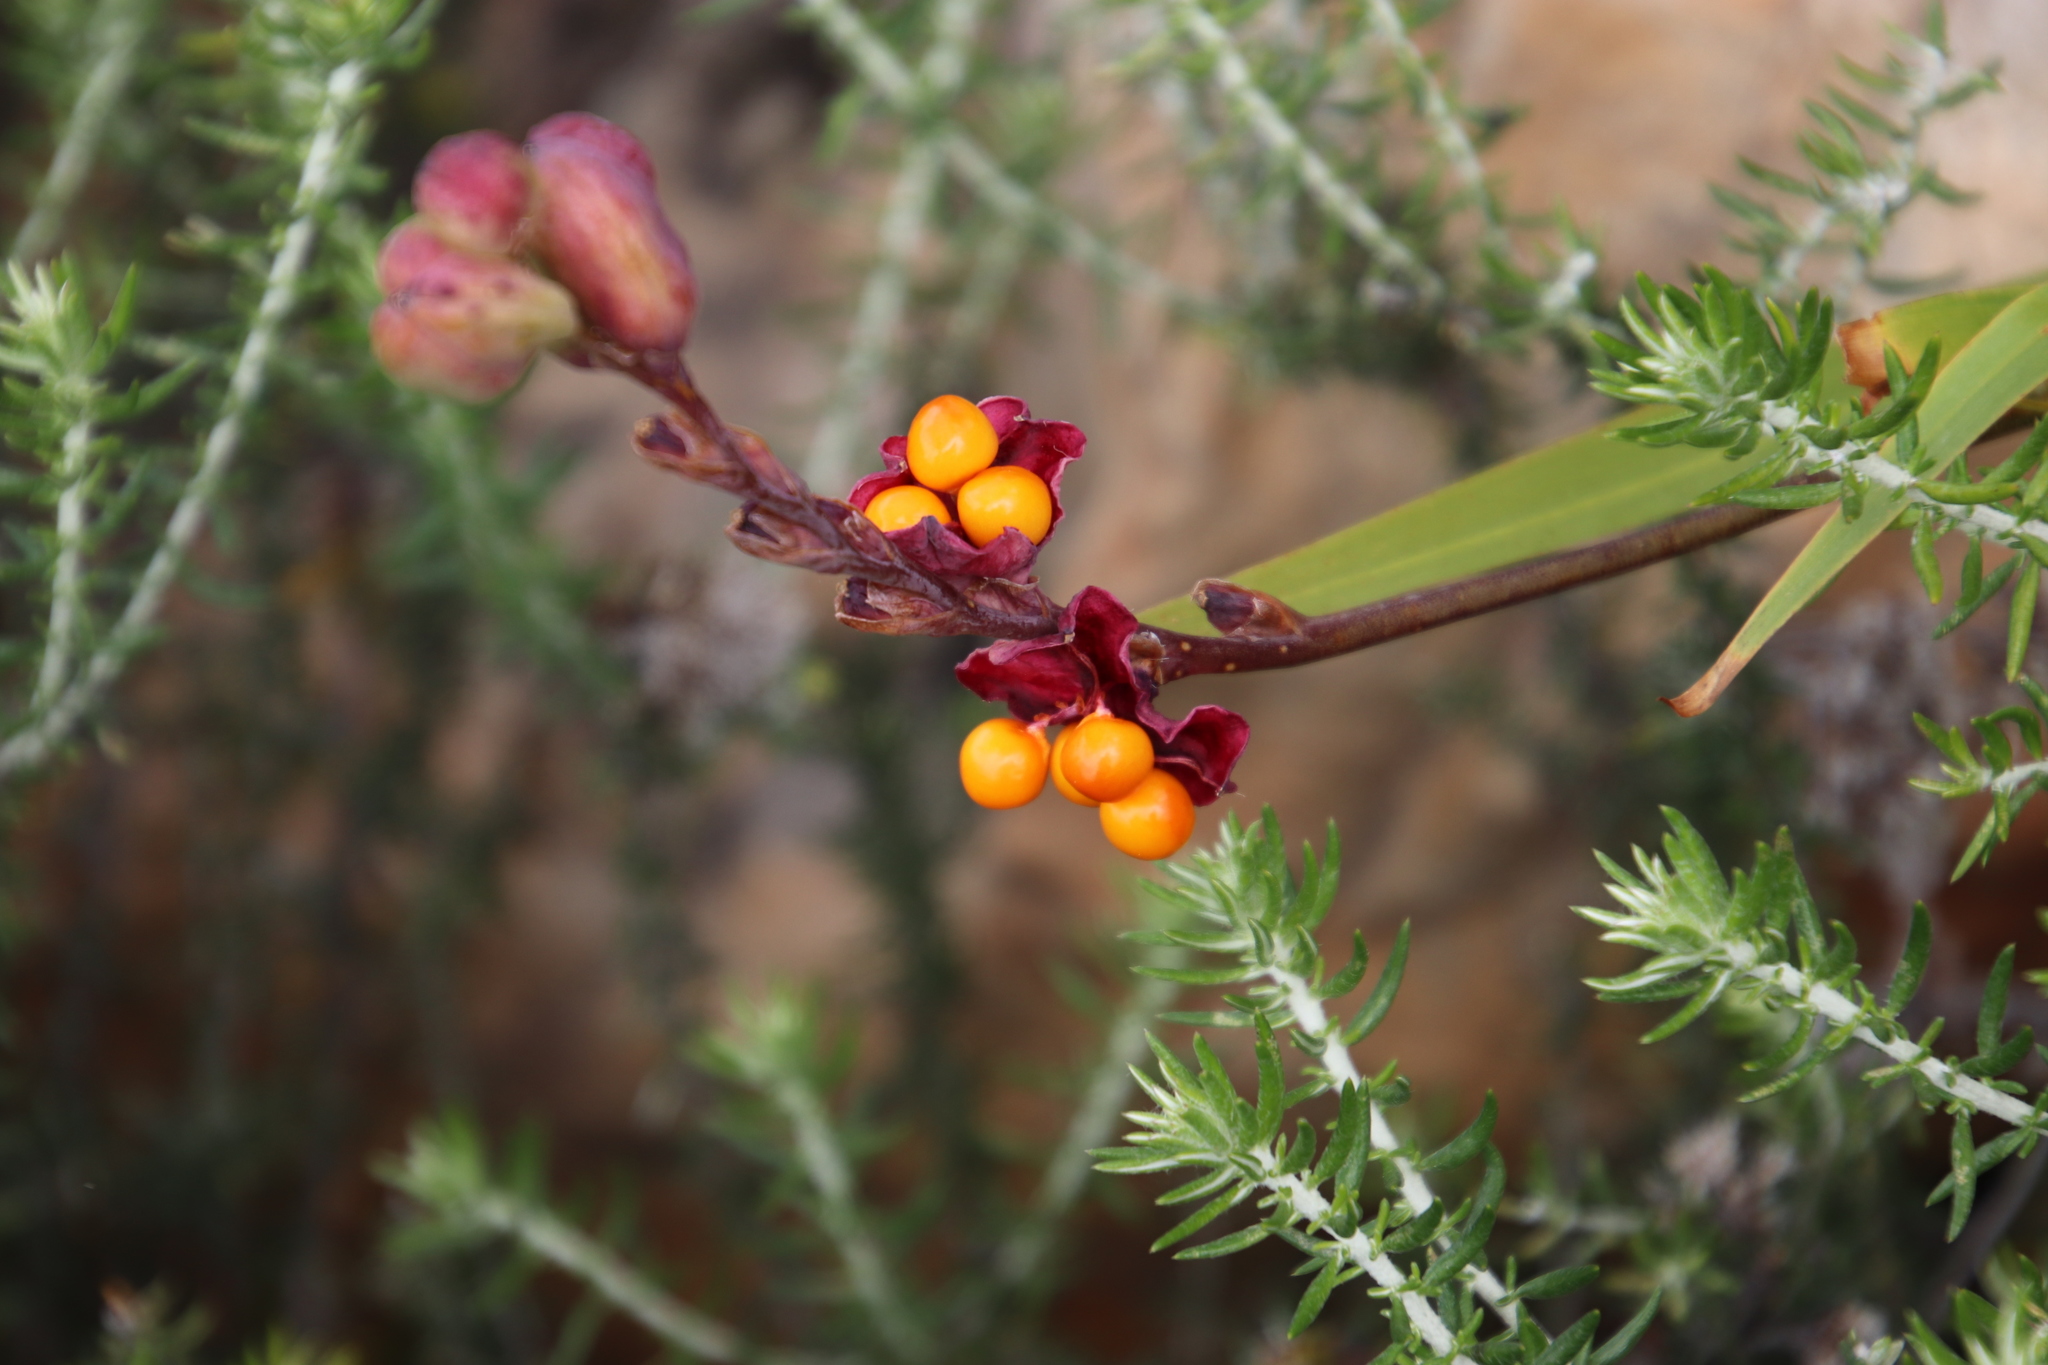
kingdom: Plantae
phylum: Tracheophyta
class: Liliopsida
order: Asparagales
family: Iridaceae
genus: Chasmanthe
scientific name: Chasmanthe aethiopica
